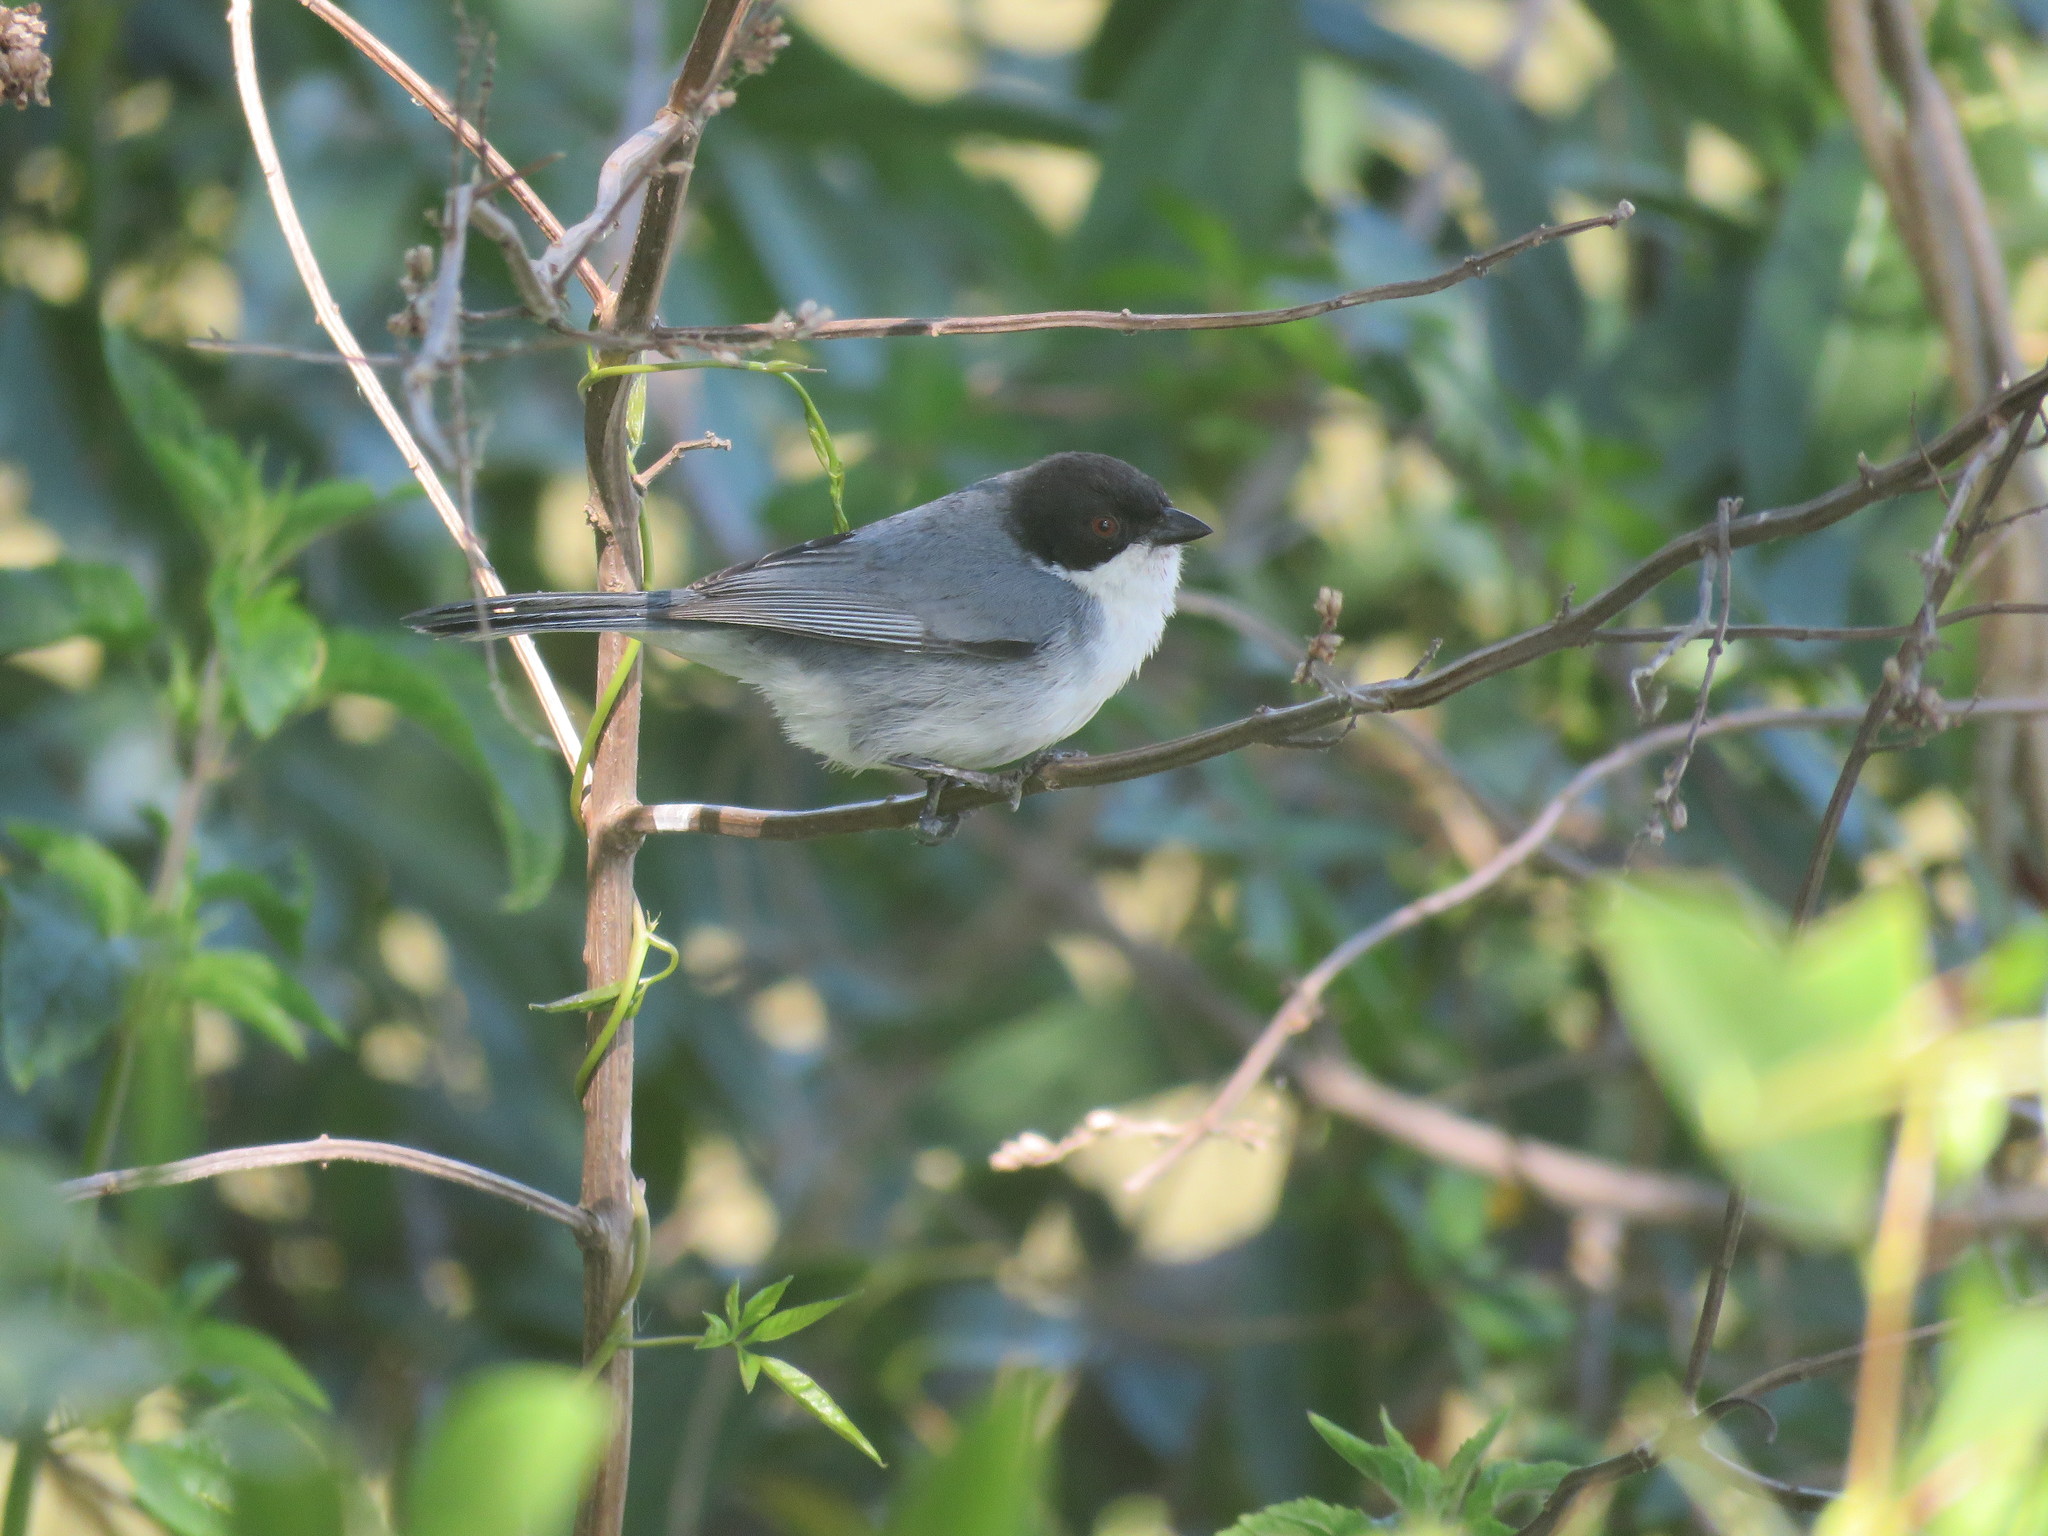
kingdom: Animalia
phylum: Chordata
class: Aves
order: Passeriformes
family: Thraupidae
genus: Microspingus
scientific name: Microspingus melanoleucus
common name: Black-capped warbling-finch
